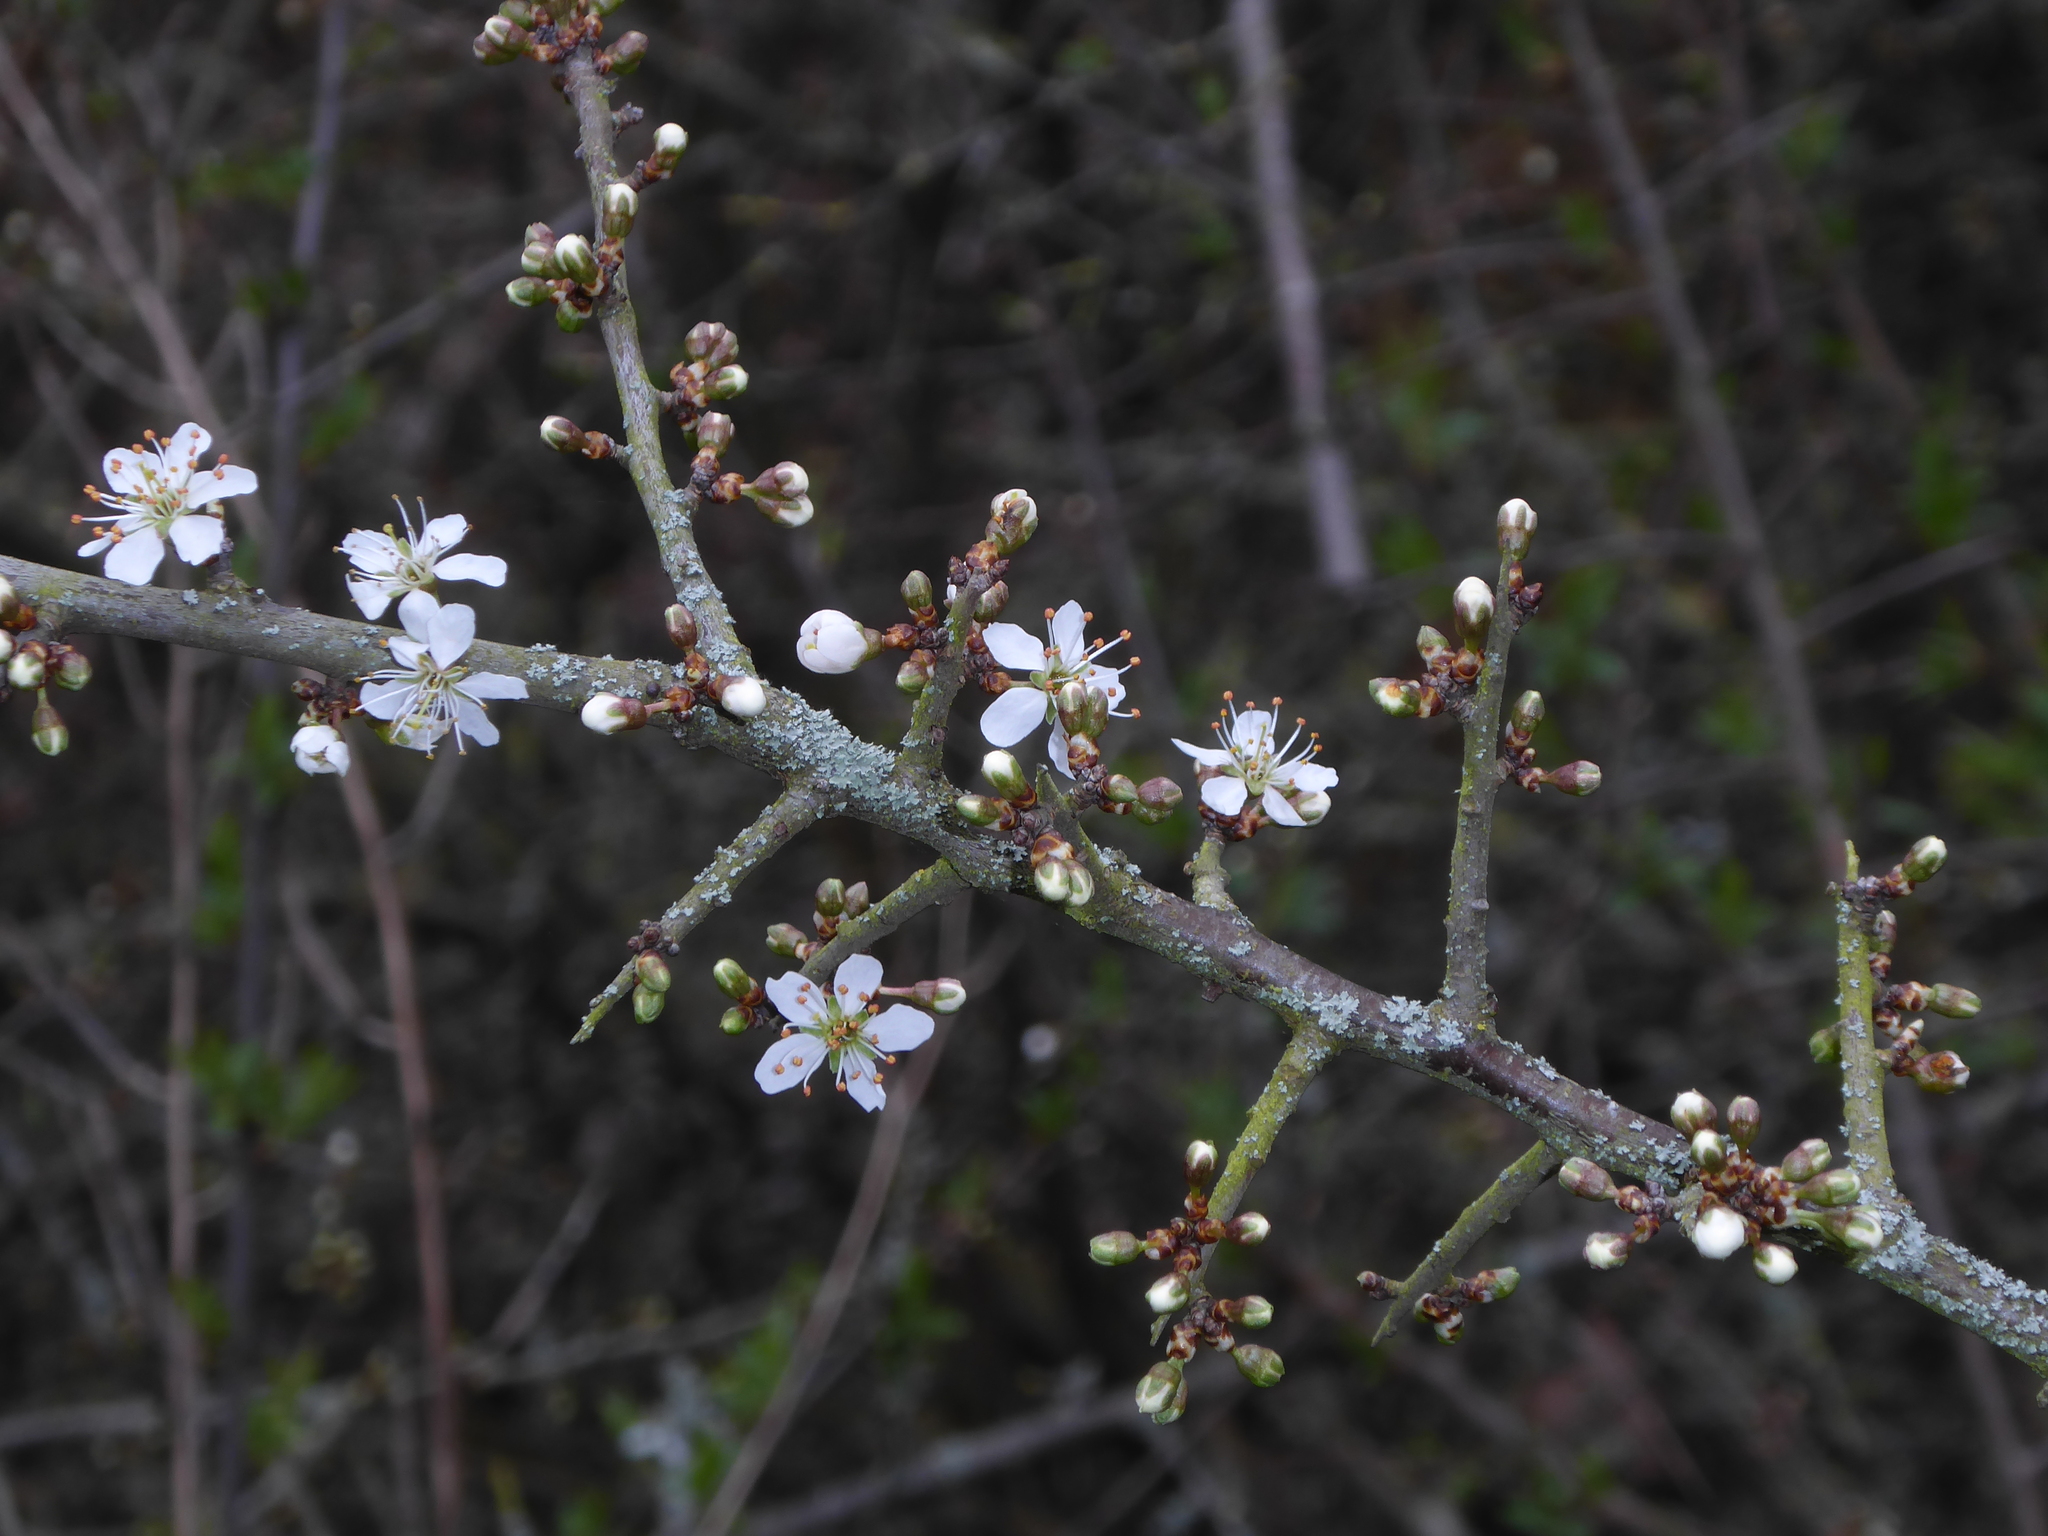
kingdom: Plantae
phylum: Tracheophyta
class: Magnoliopsida
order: Rosales
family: Rosaceae
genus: Prunus
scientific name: Prunus spinosa
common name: Blackthorn
